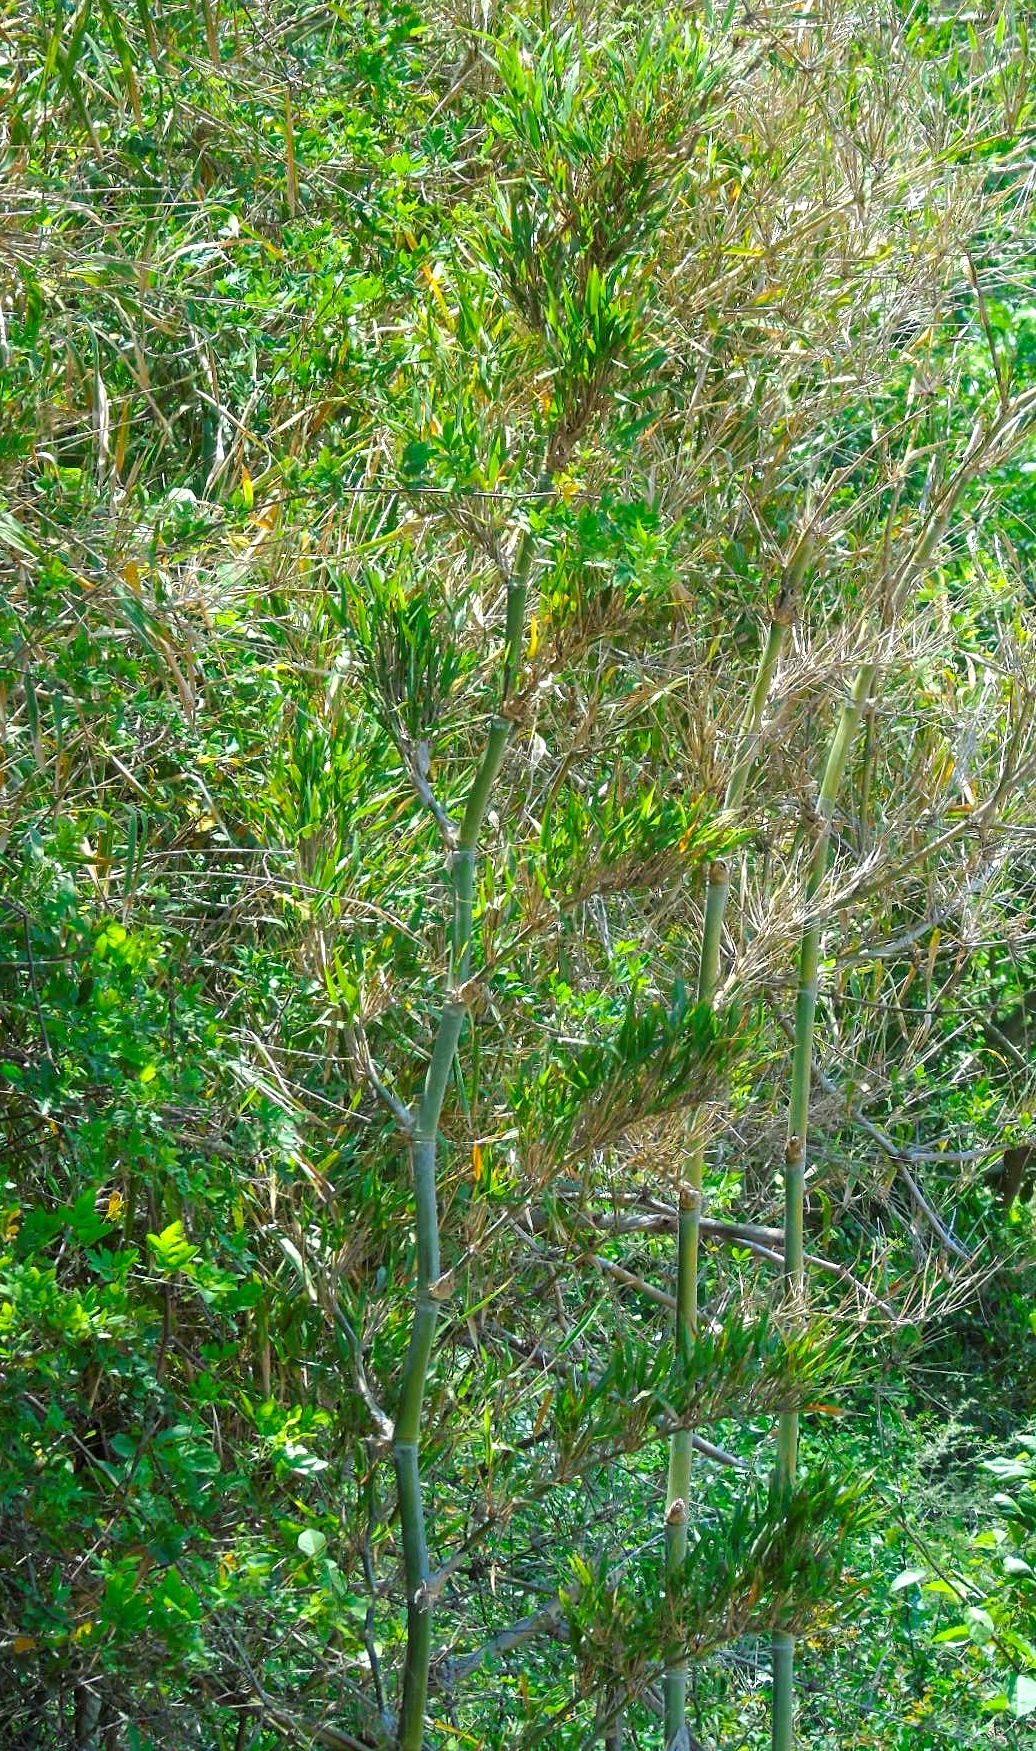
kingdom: Plantae
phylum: Tracheophyta
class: Liliopsida
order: Poales
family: Poaceae
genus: Guadua
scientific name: Guadua paniculata
